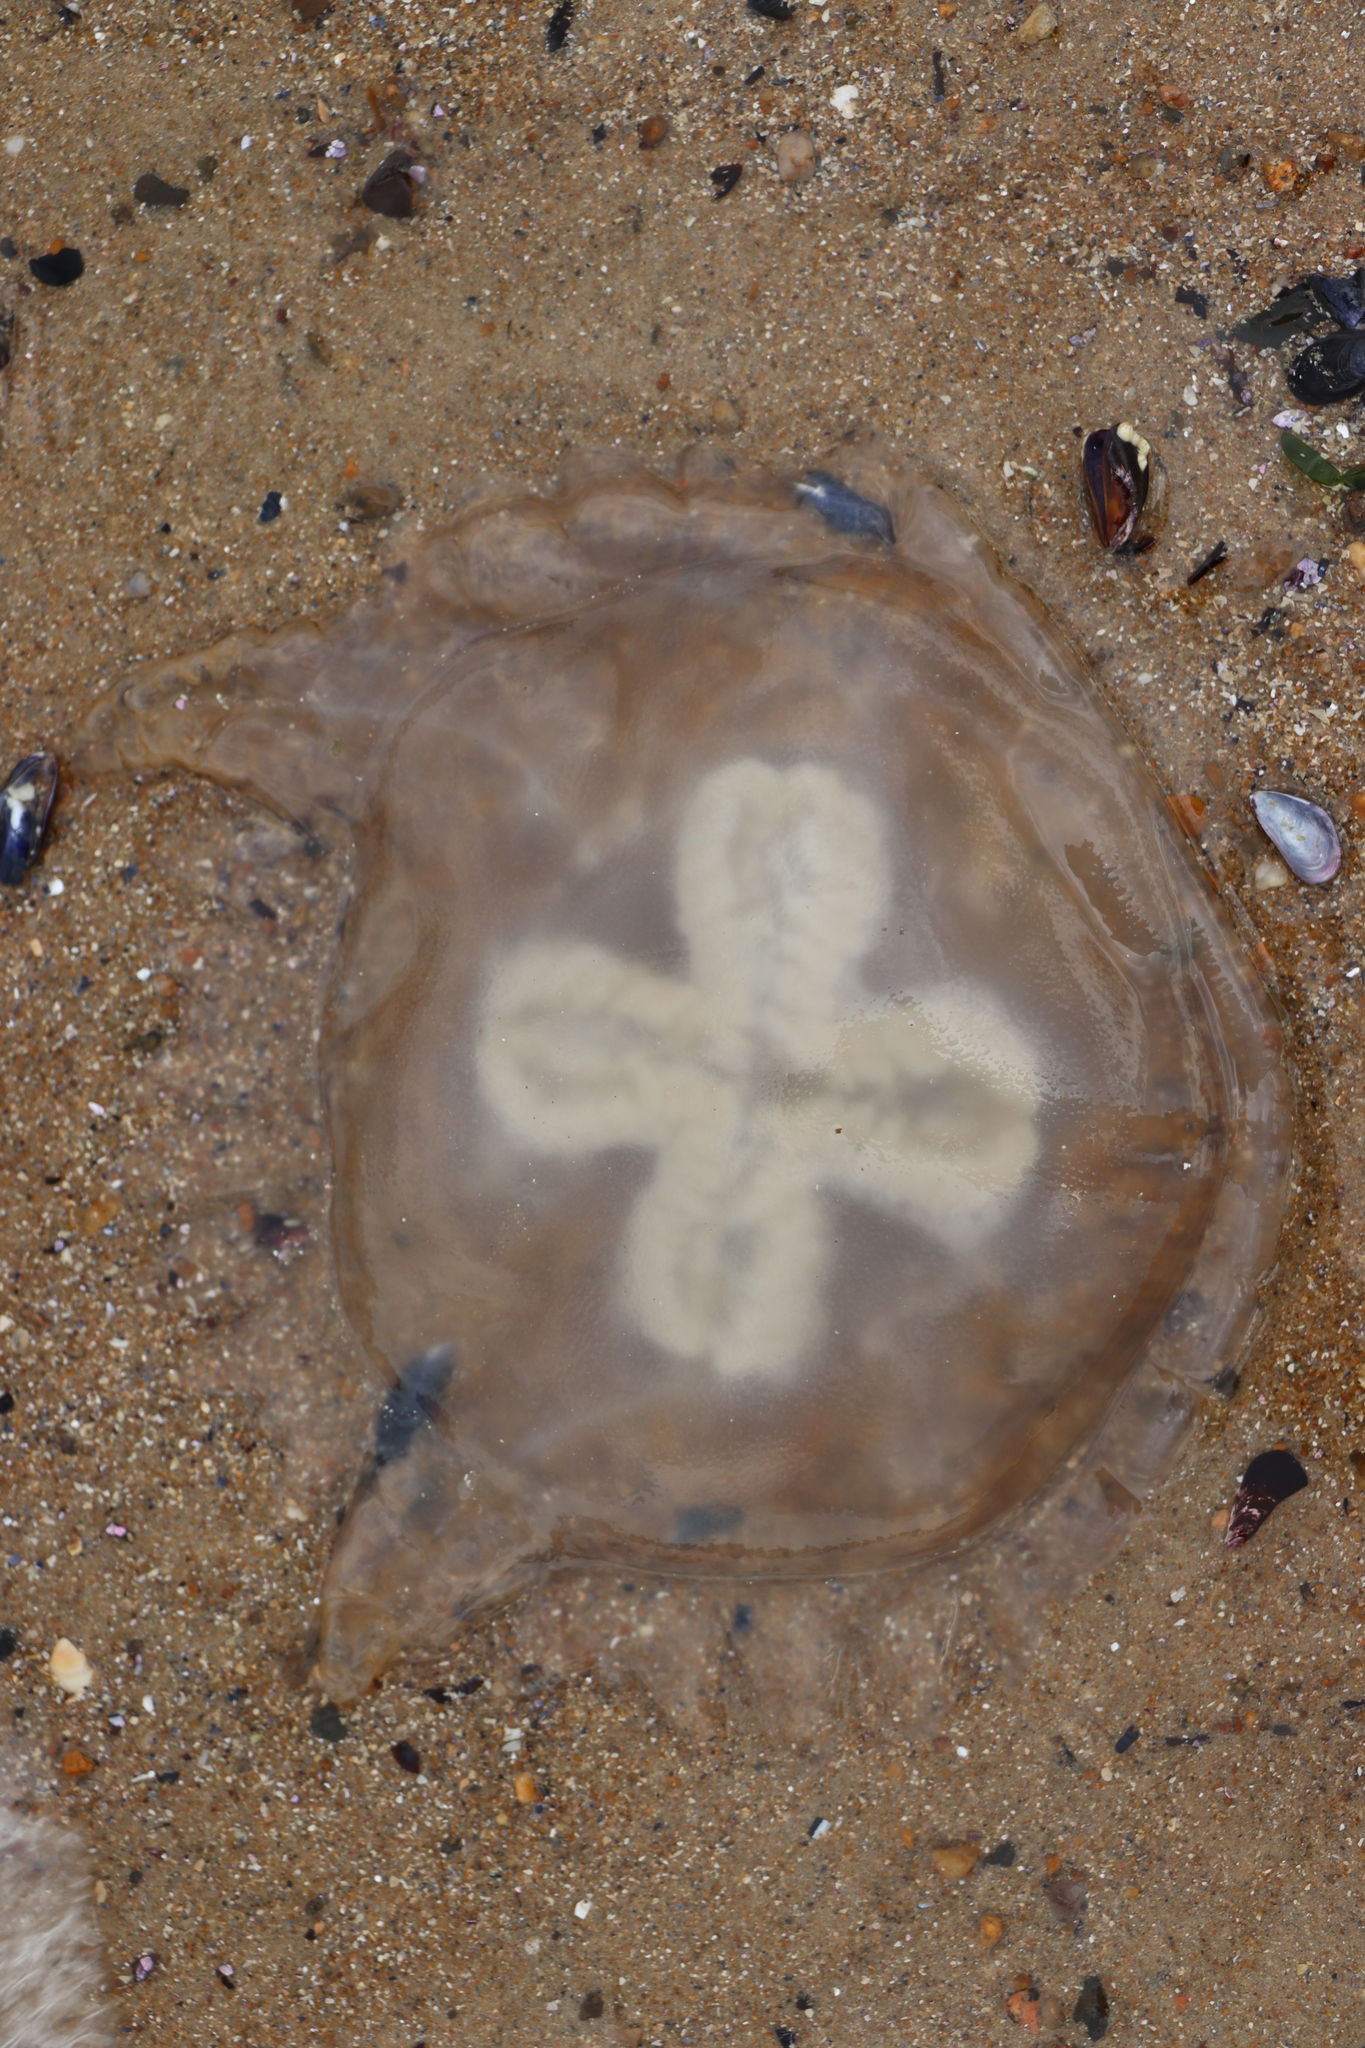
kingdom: Animalia
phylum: Cnidaria
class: Scyphozoa
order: Rhizostomeae
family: Lychnorhizidae
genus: Lychnorhiza
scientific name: Lychnorhiza lucerna
